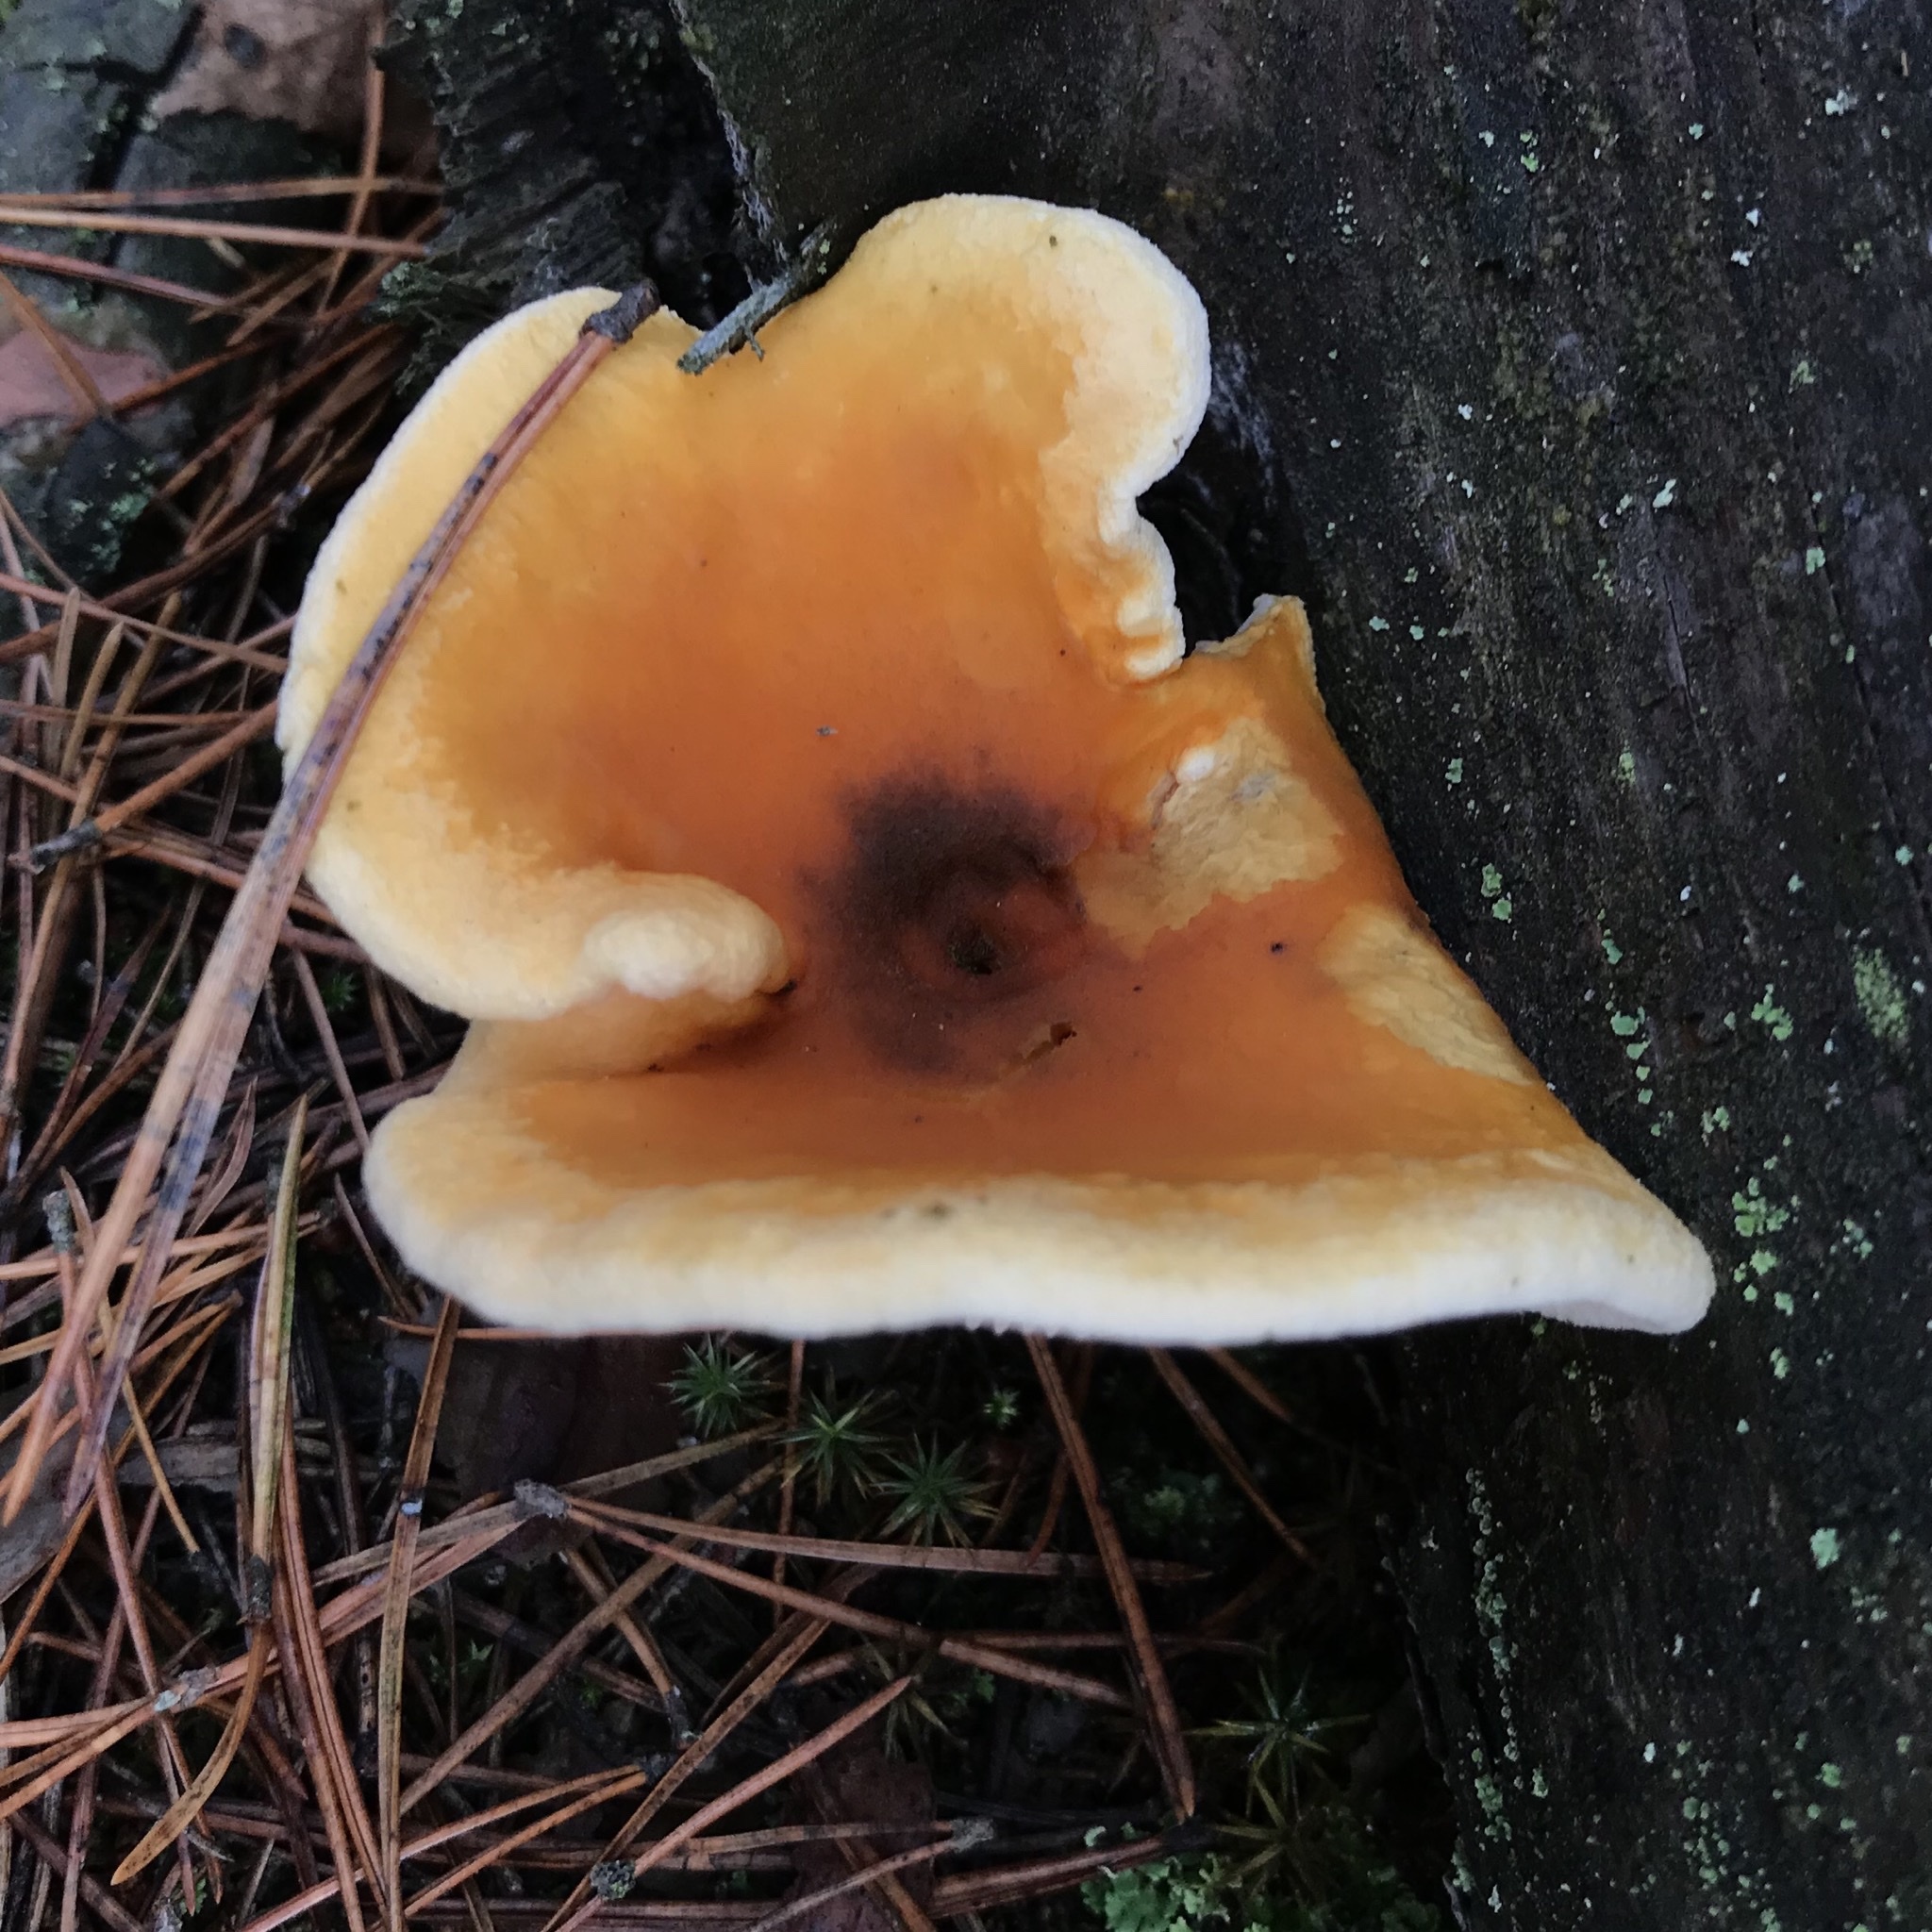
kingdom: Fungi
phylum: Basidiomycota
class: Agaricomycetes
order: Boletales
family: Hygrophoropsidaceae
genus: Hygrophoropsis
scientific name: Hygrophoropsis aurantiaca
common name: False chanterelle
